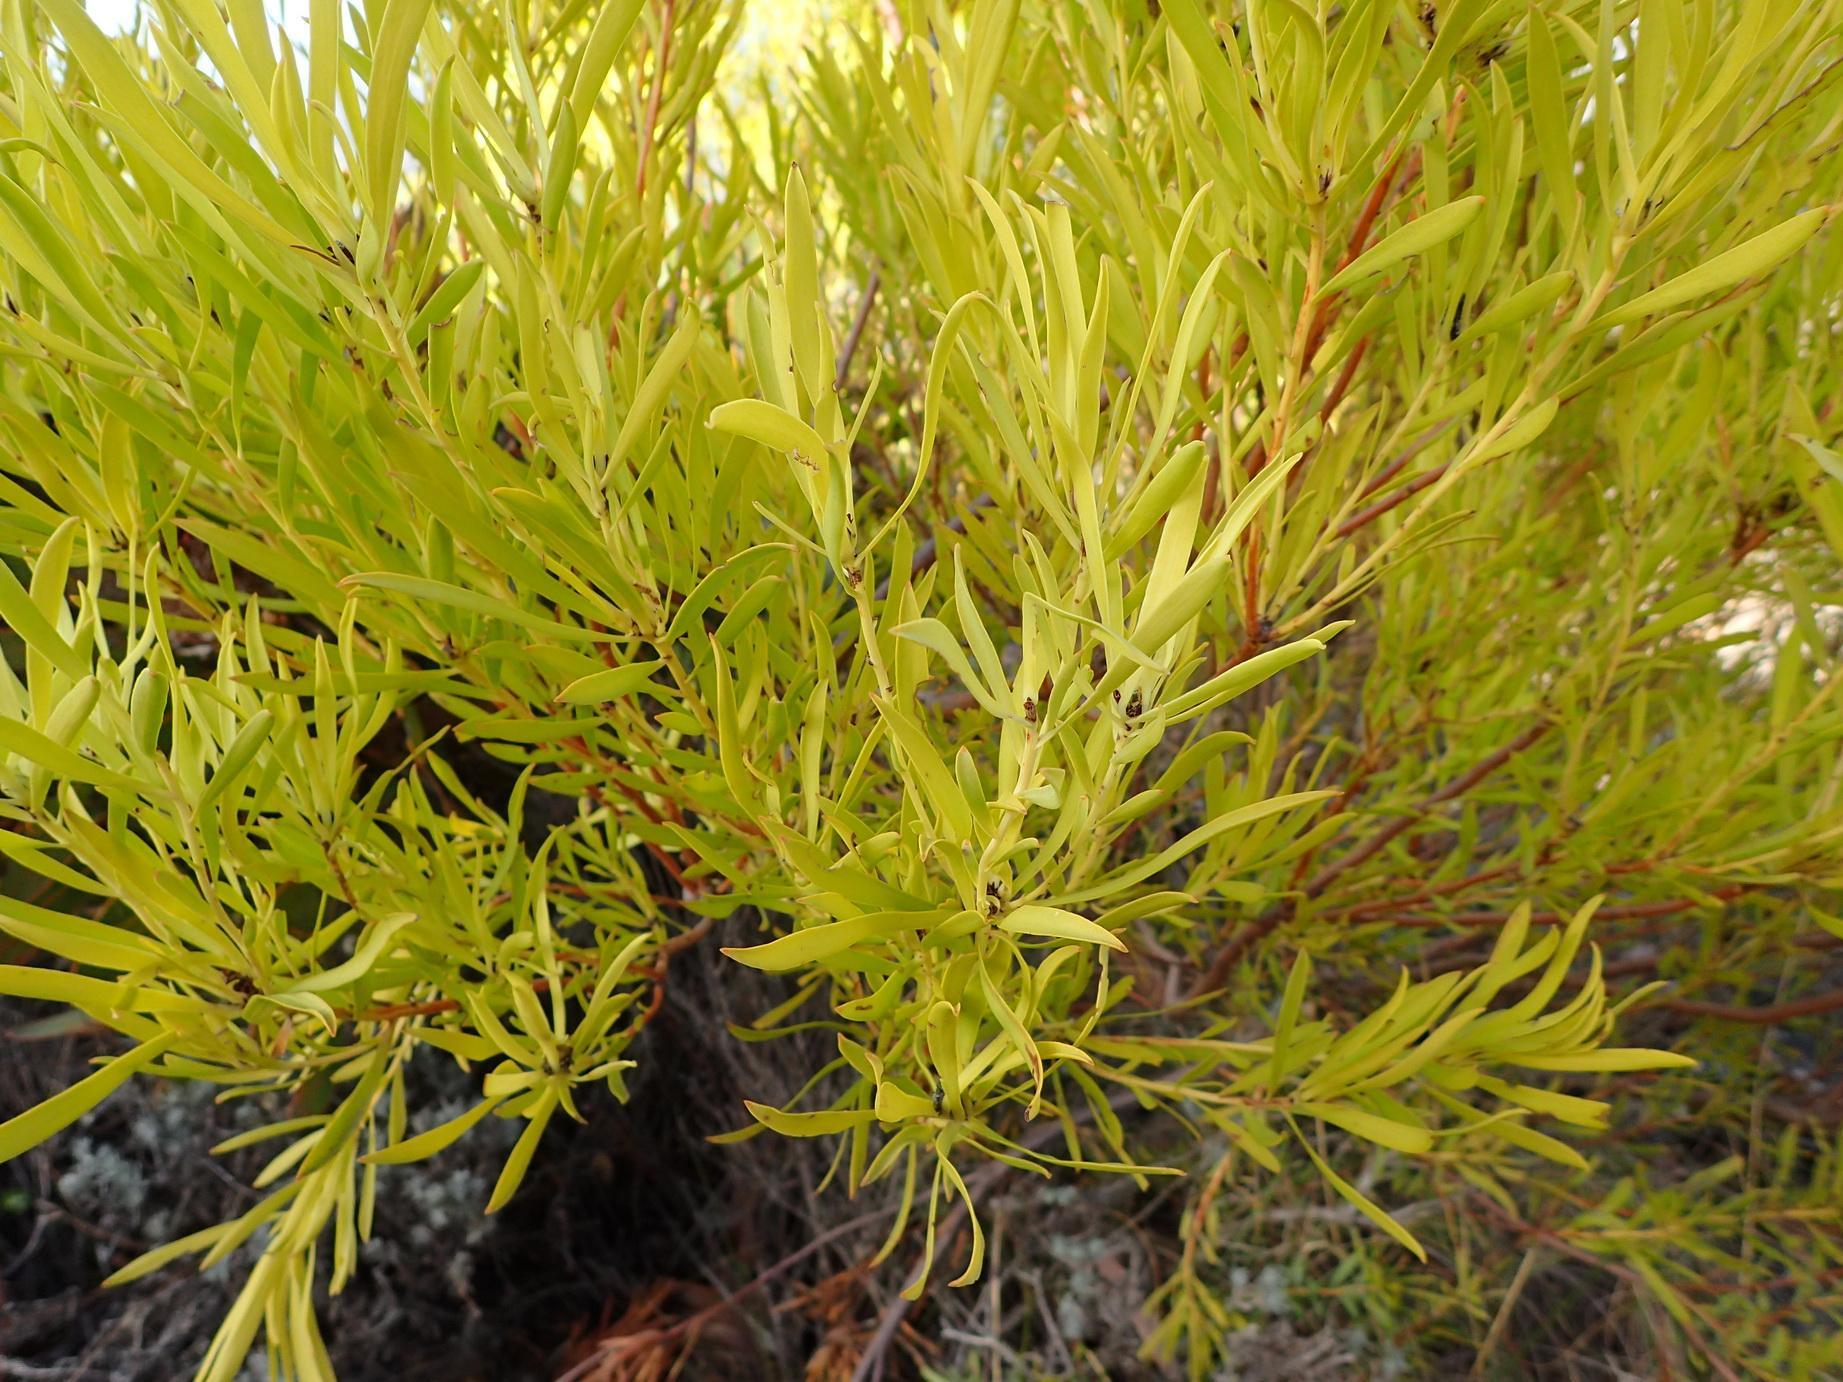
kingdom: Plantae
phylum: Tracheophyta
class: Magnoliopsida
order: Proteales
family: Proteaceae
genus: Leucadendron
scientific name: Leucadendron salignum
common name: Common sunshine conebush
